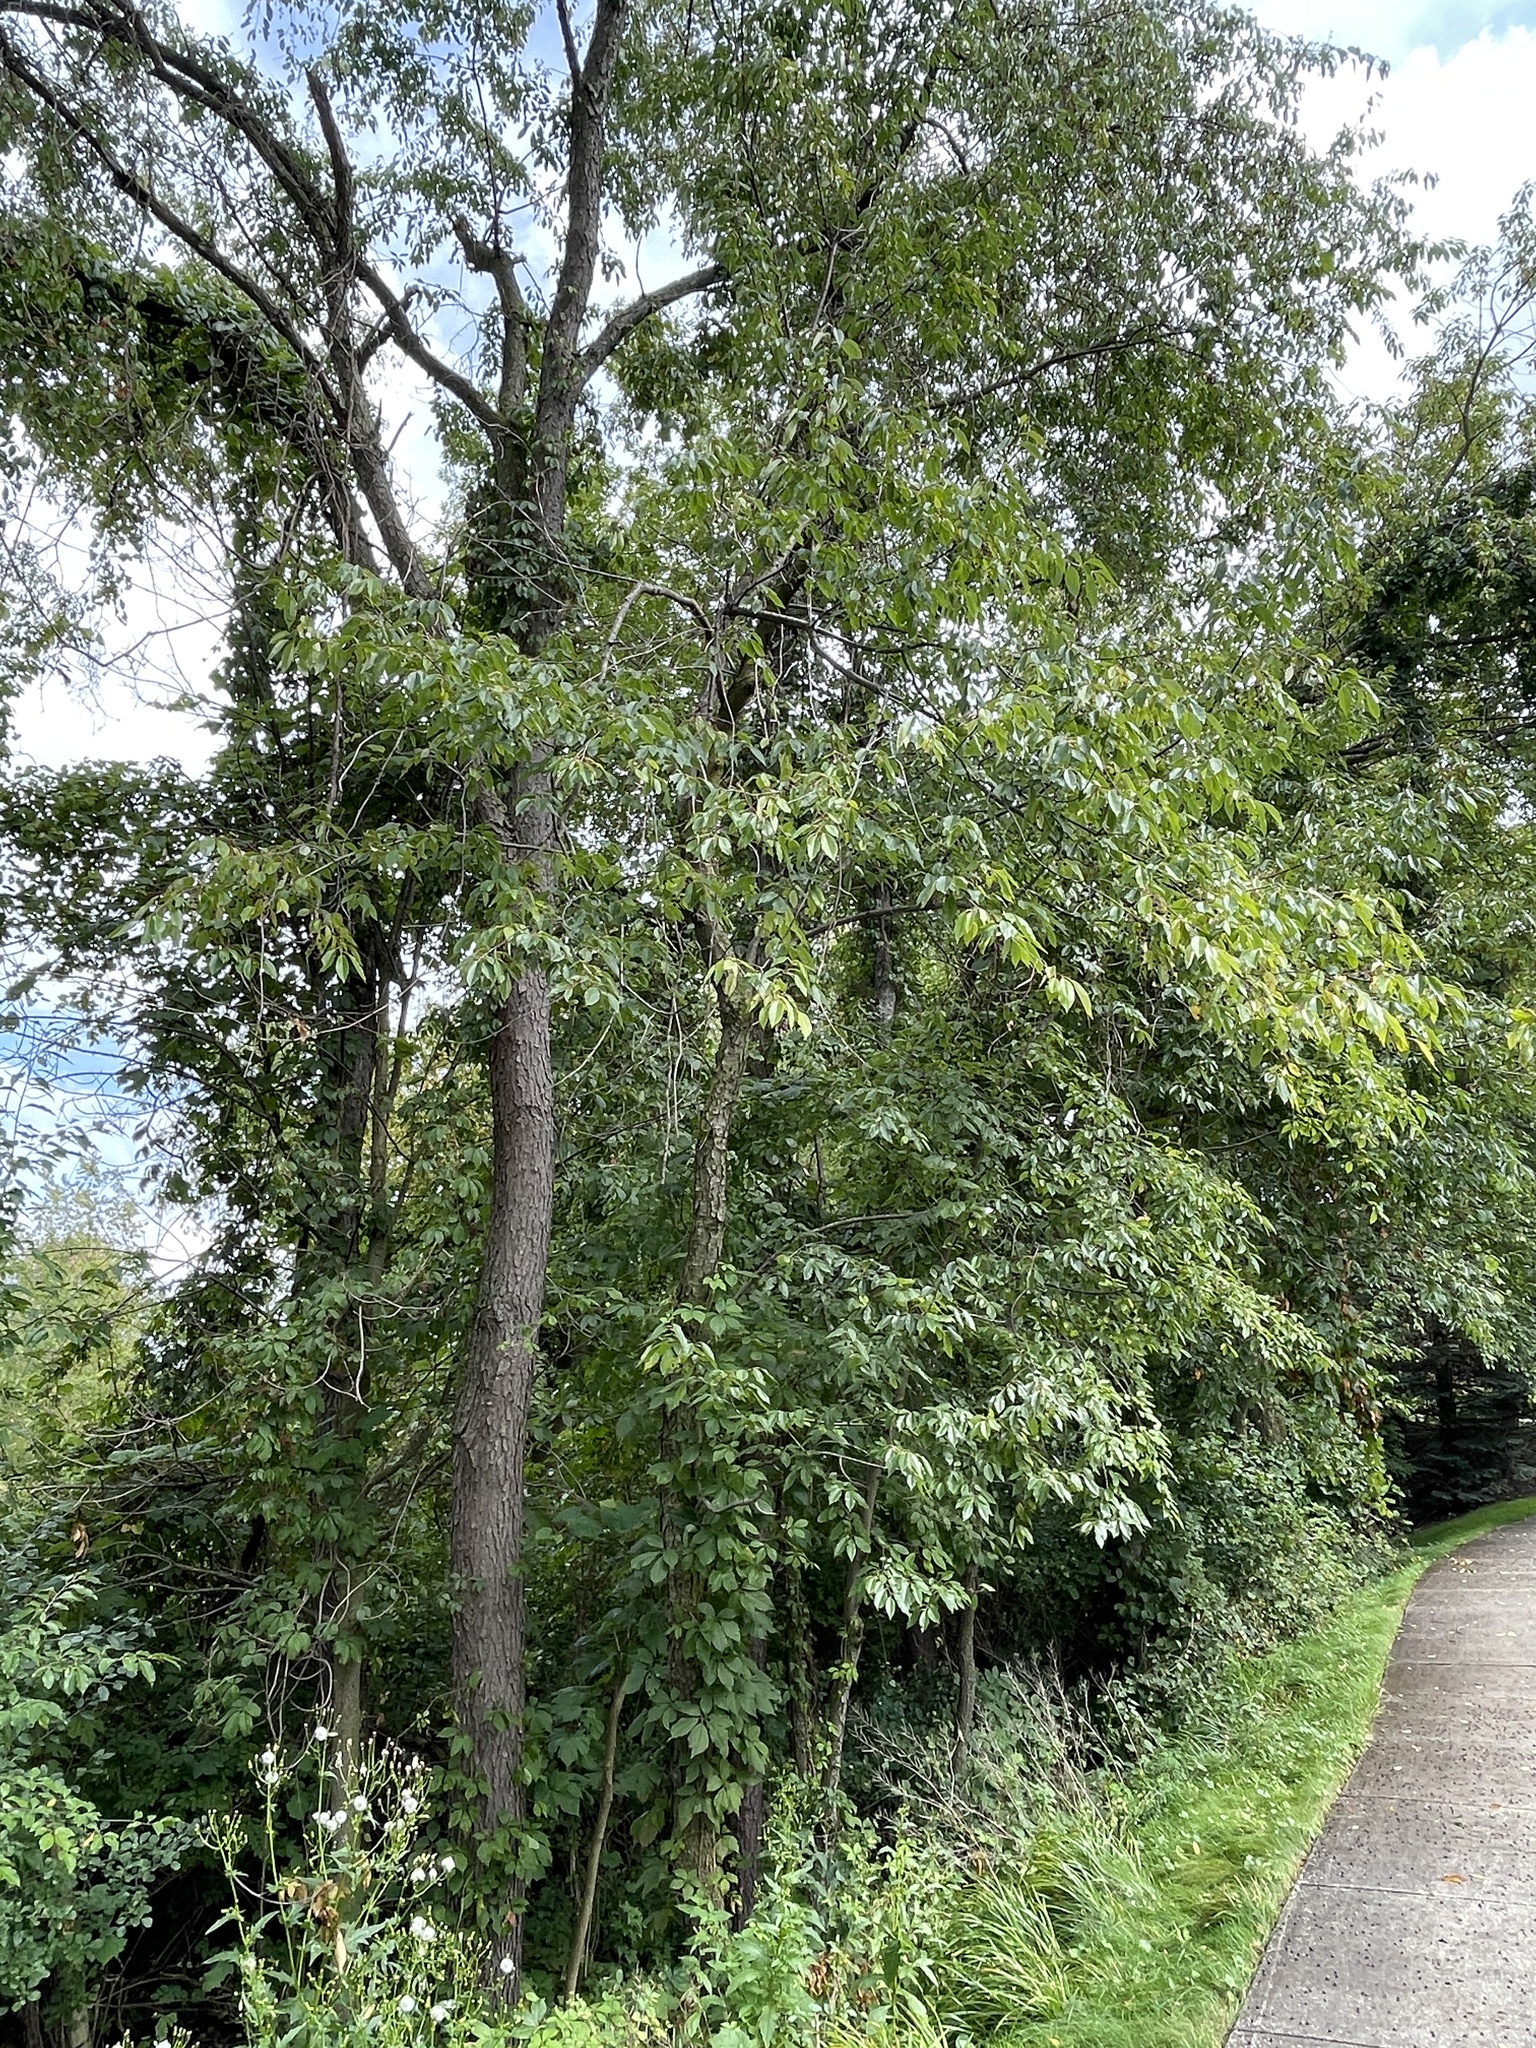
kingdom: Plantae
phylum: Tracheophyta
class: Magnoliopsida
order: Rosales
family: Rosaceae
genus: Prunus
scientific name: Prunus serotina
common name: Black cherry
